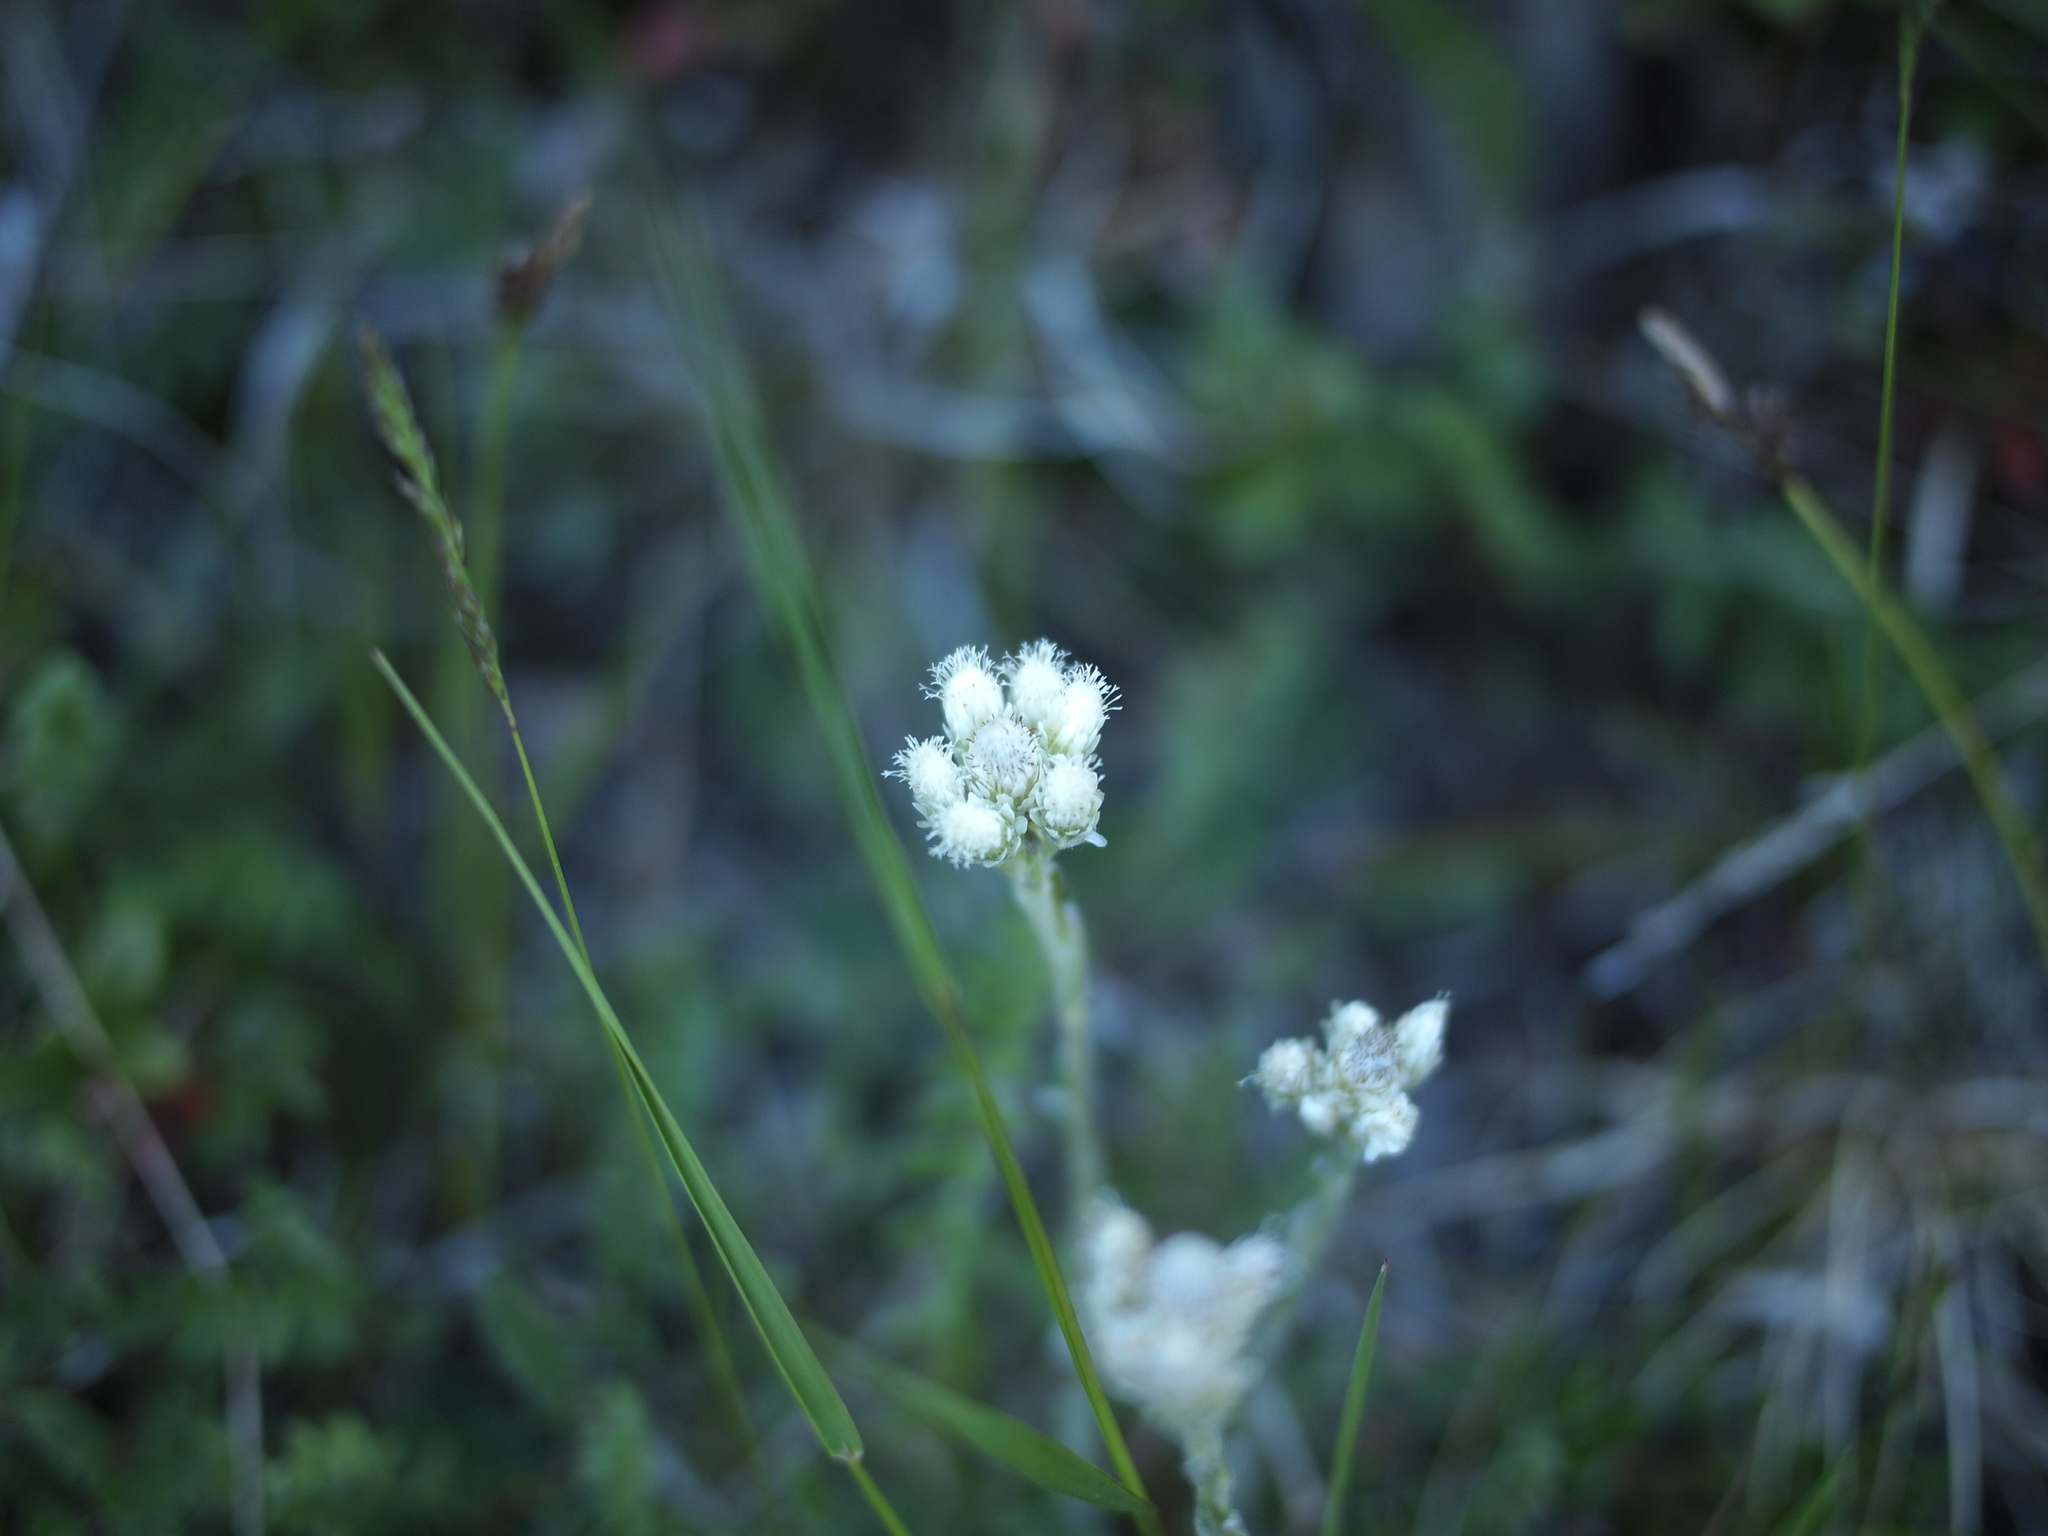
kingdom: Plantae
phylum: Tracheophyta
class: Magnoliopsida
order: Asterales
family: Asteraceae
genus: Antennaria
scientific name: Antennaria dioica
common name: Mountain everlasting
